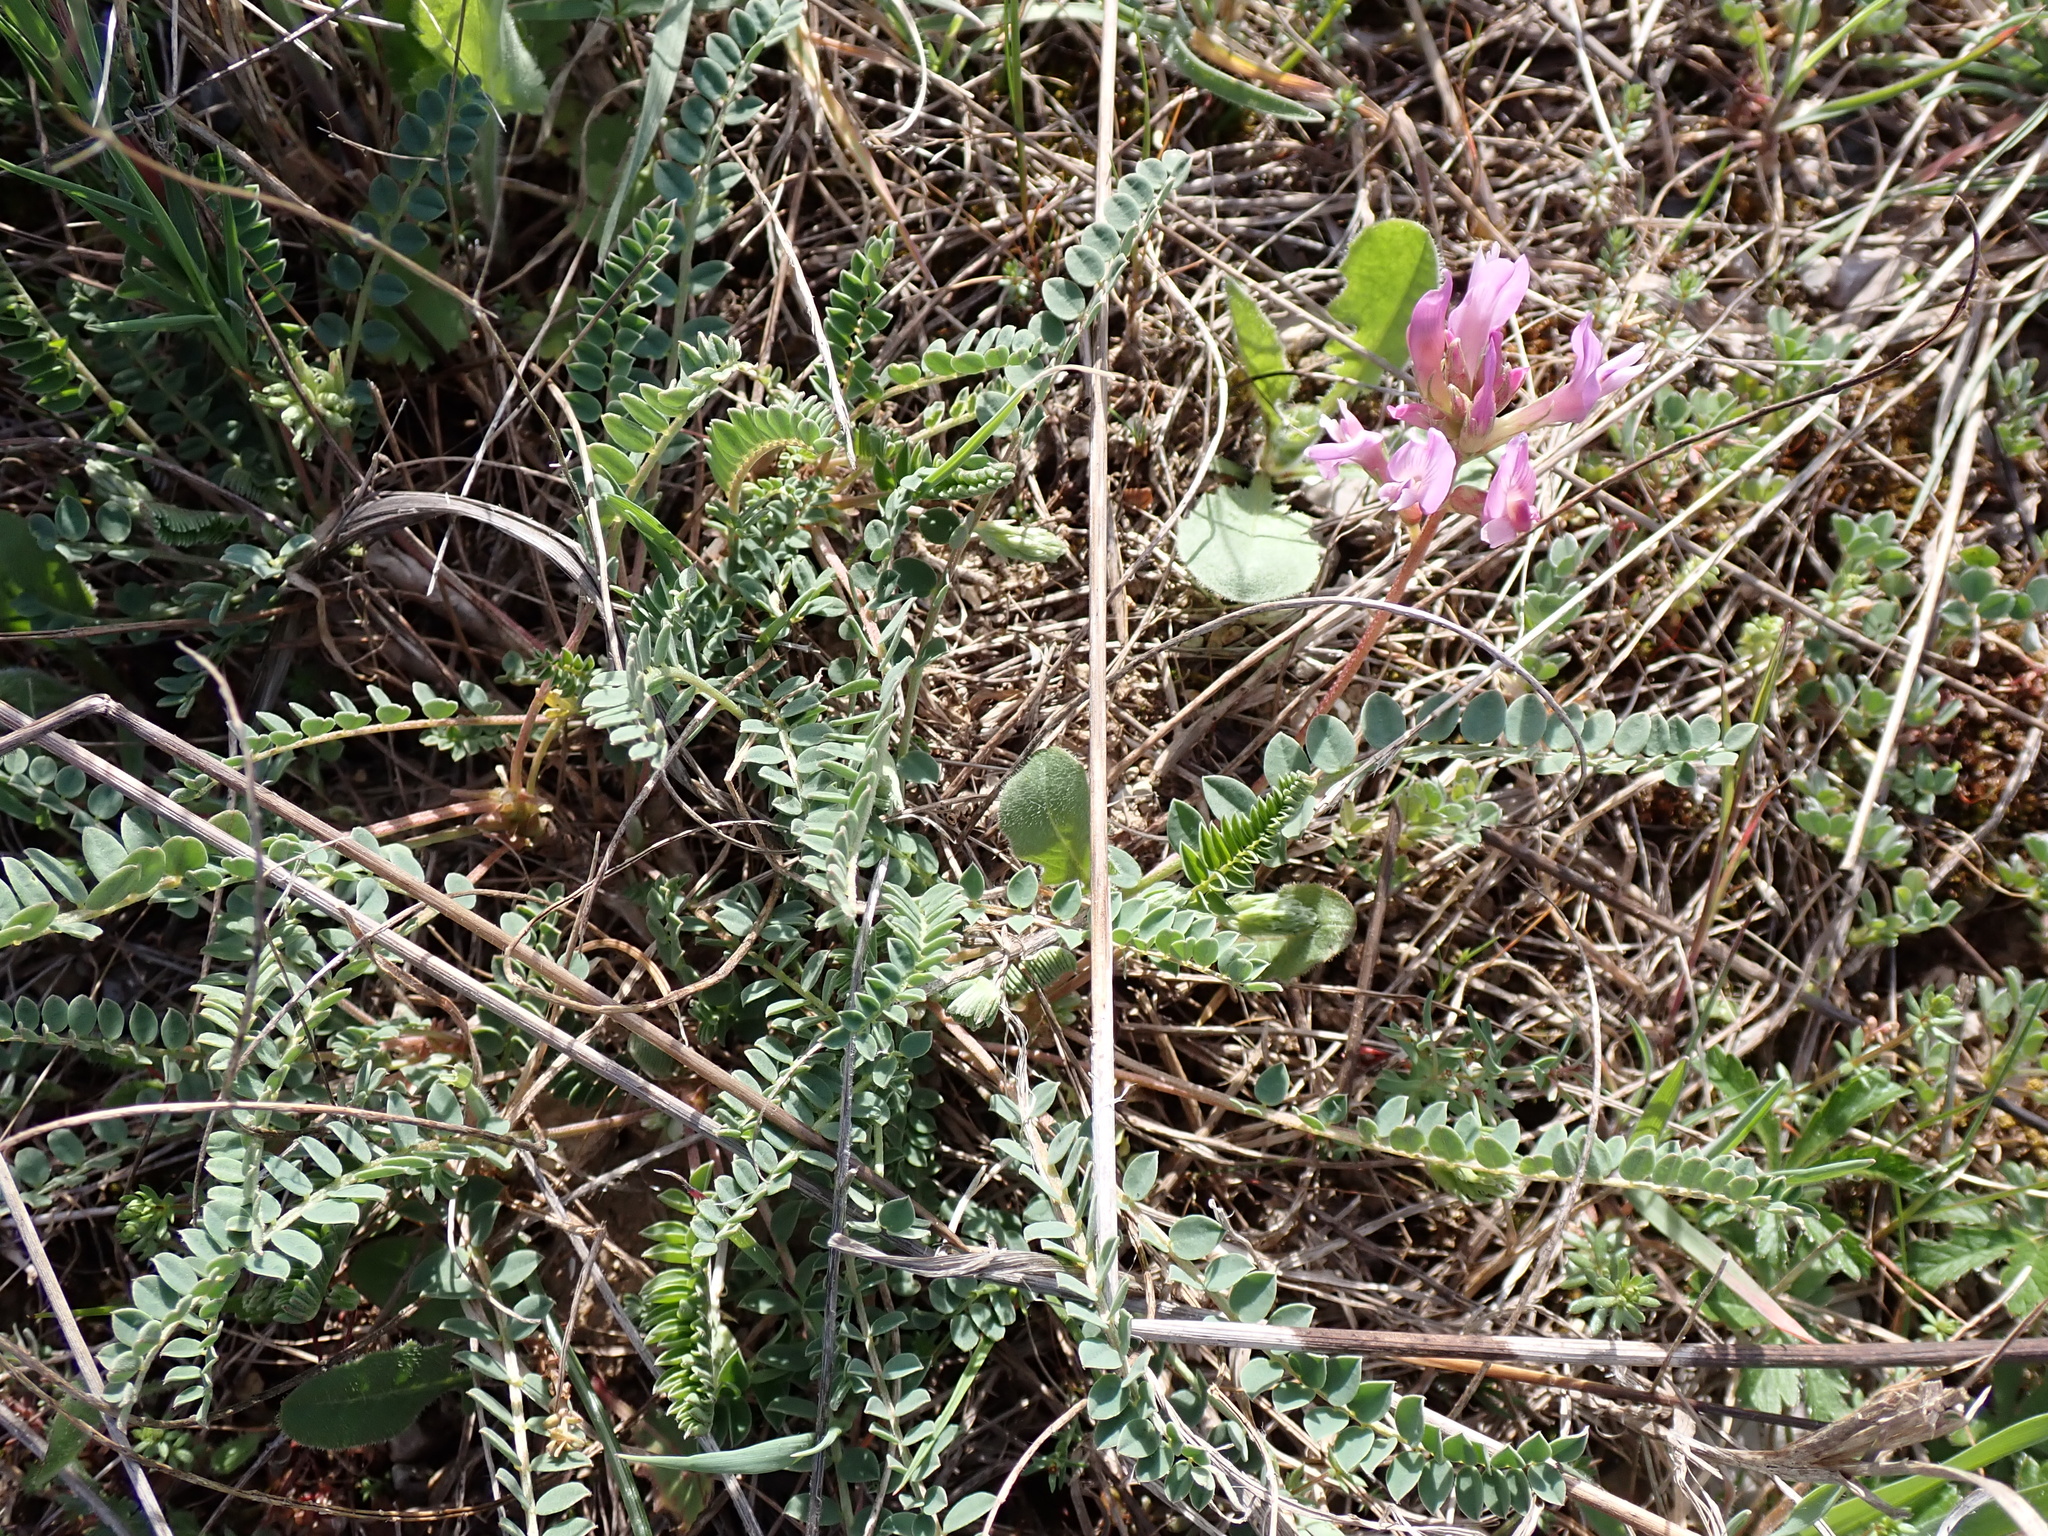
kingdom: Plantae
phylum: Tracheophyta
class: Magnoliopsida
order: Fabales
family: Fabaceae
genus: Astragalus
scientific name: Astragalus monspessulanus
